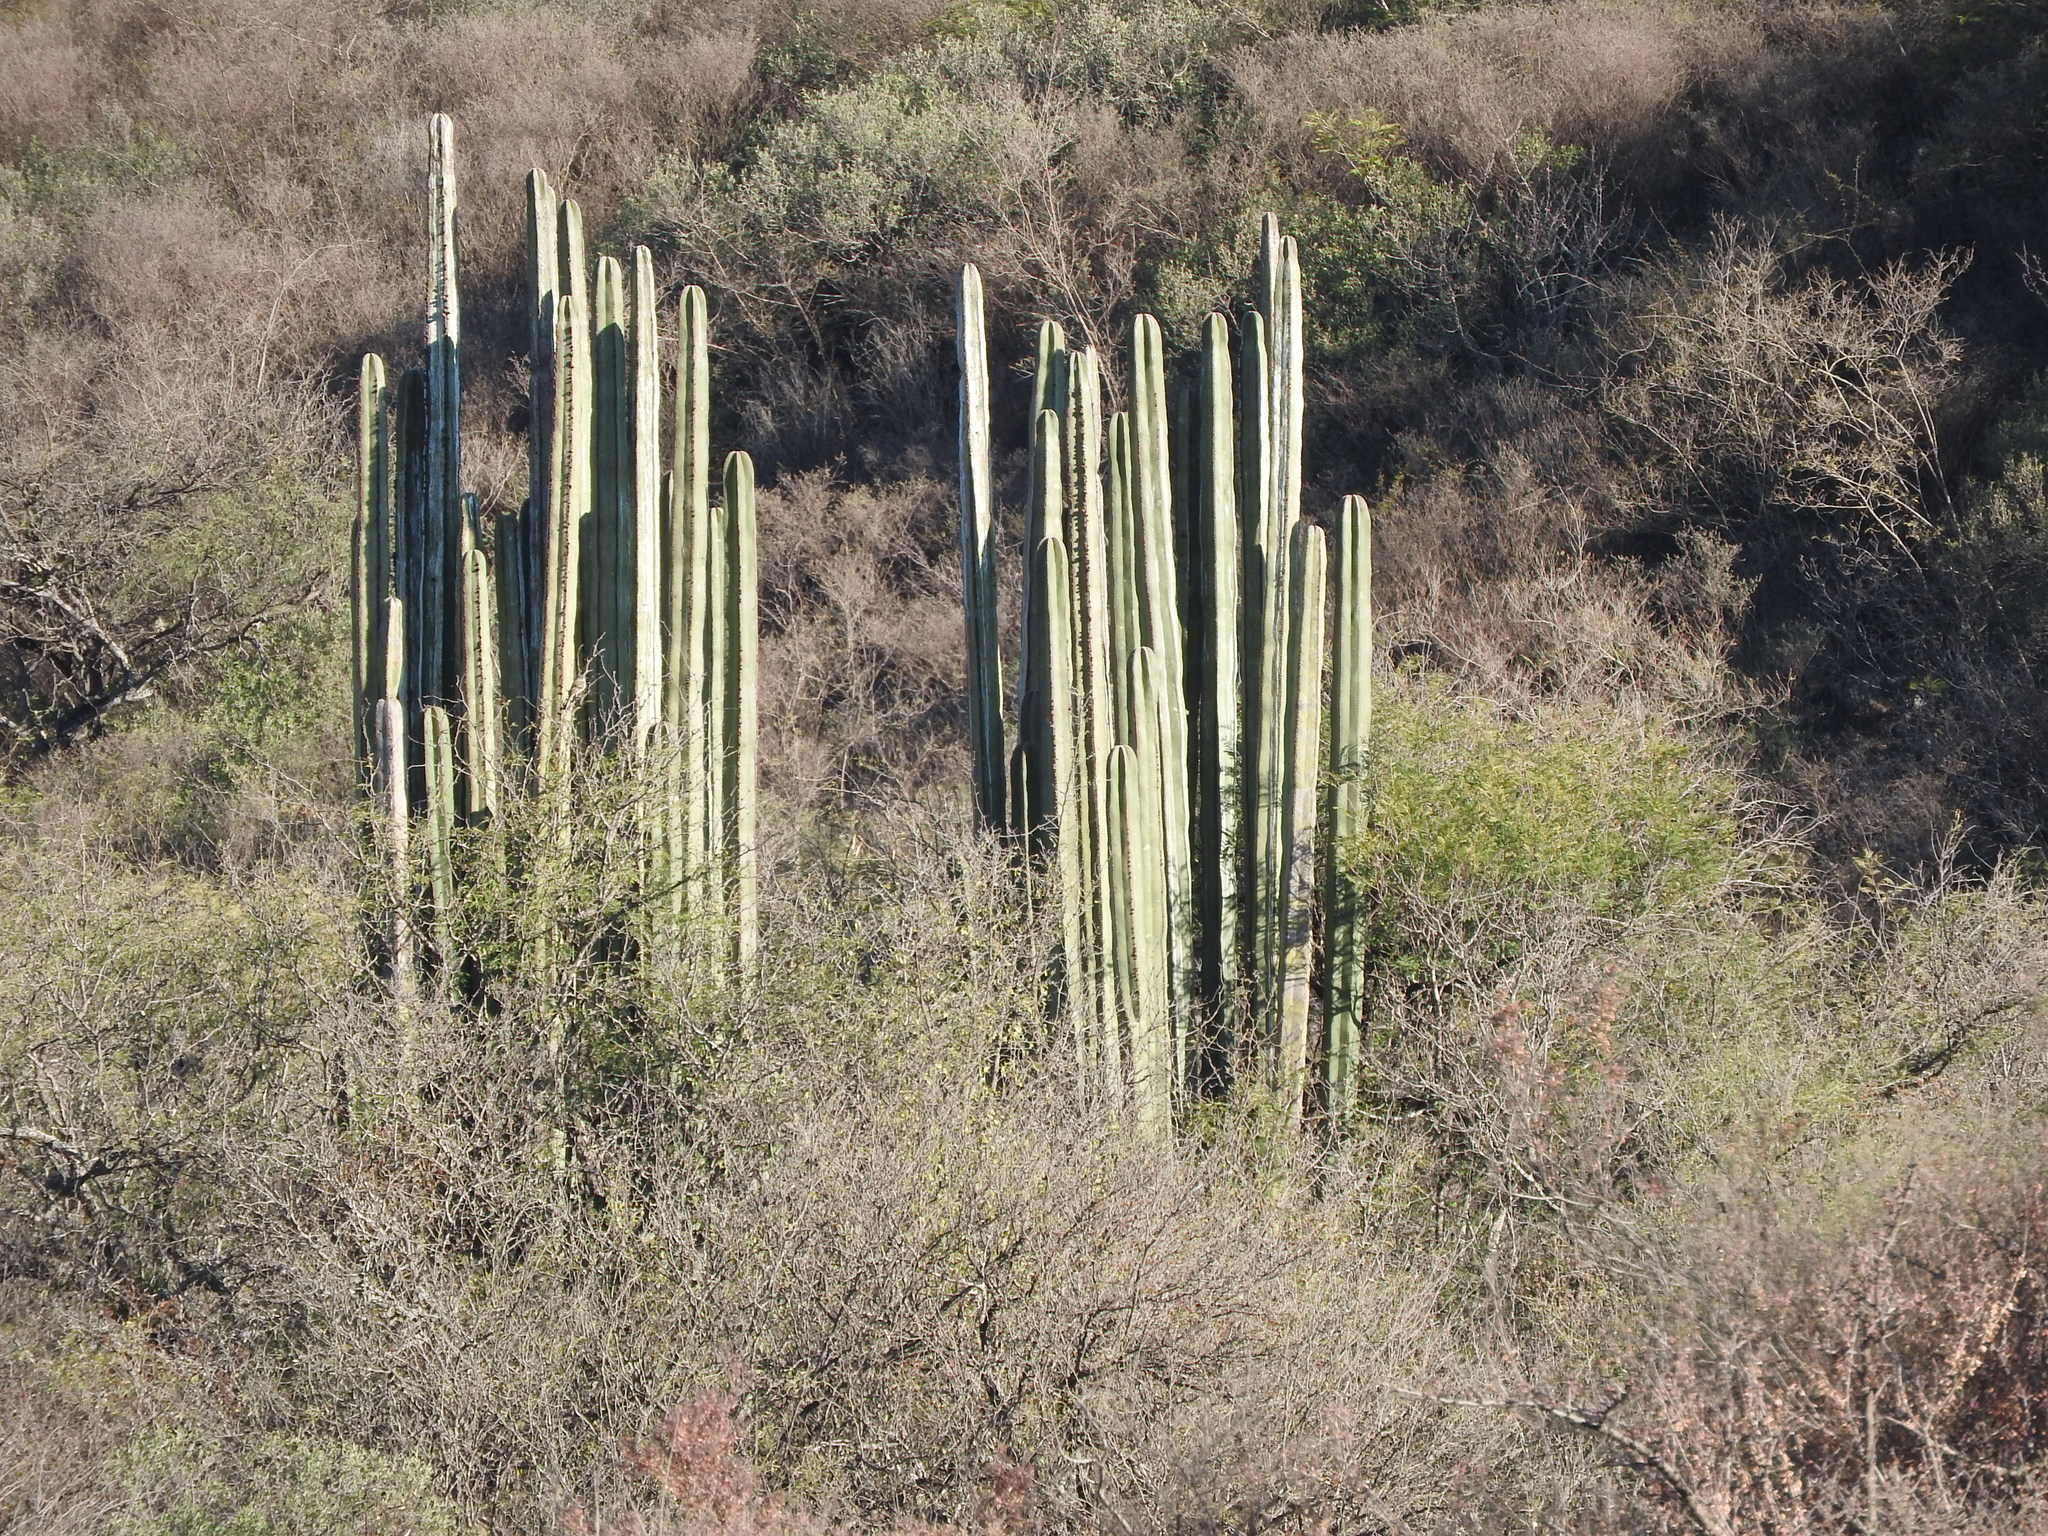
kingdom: Plantae
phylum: Tracheophyta
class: Magnoliopsida
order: Caryophyllales
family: Cactaceae
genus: Marginatocereus
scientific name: Marginatocereus marginatus
